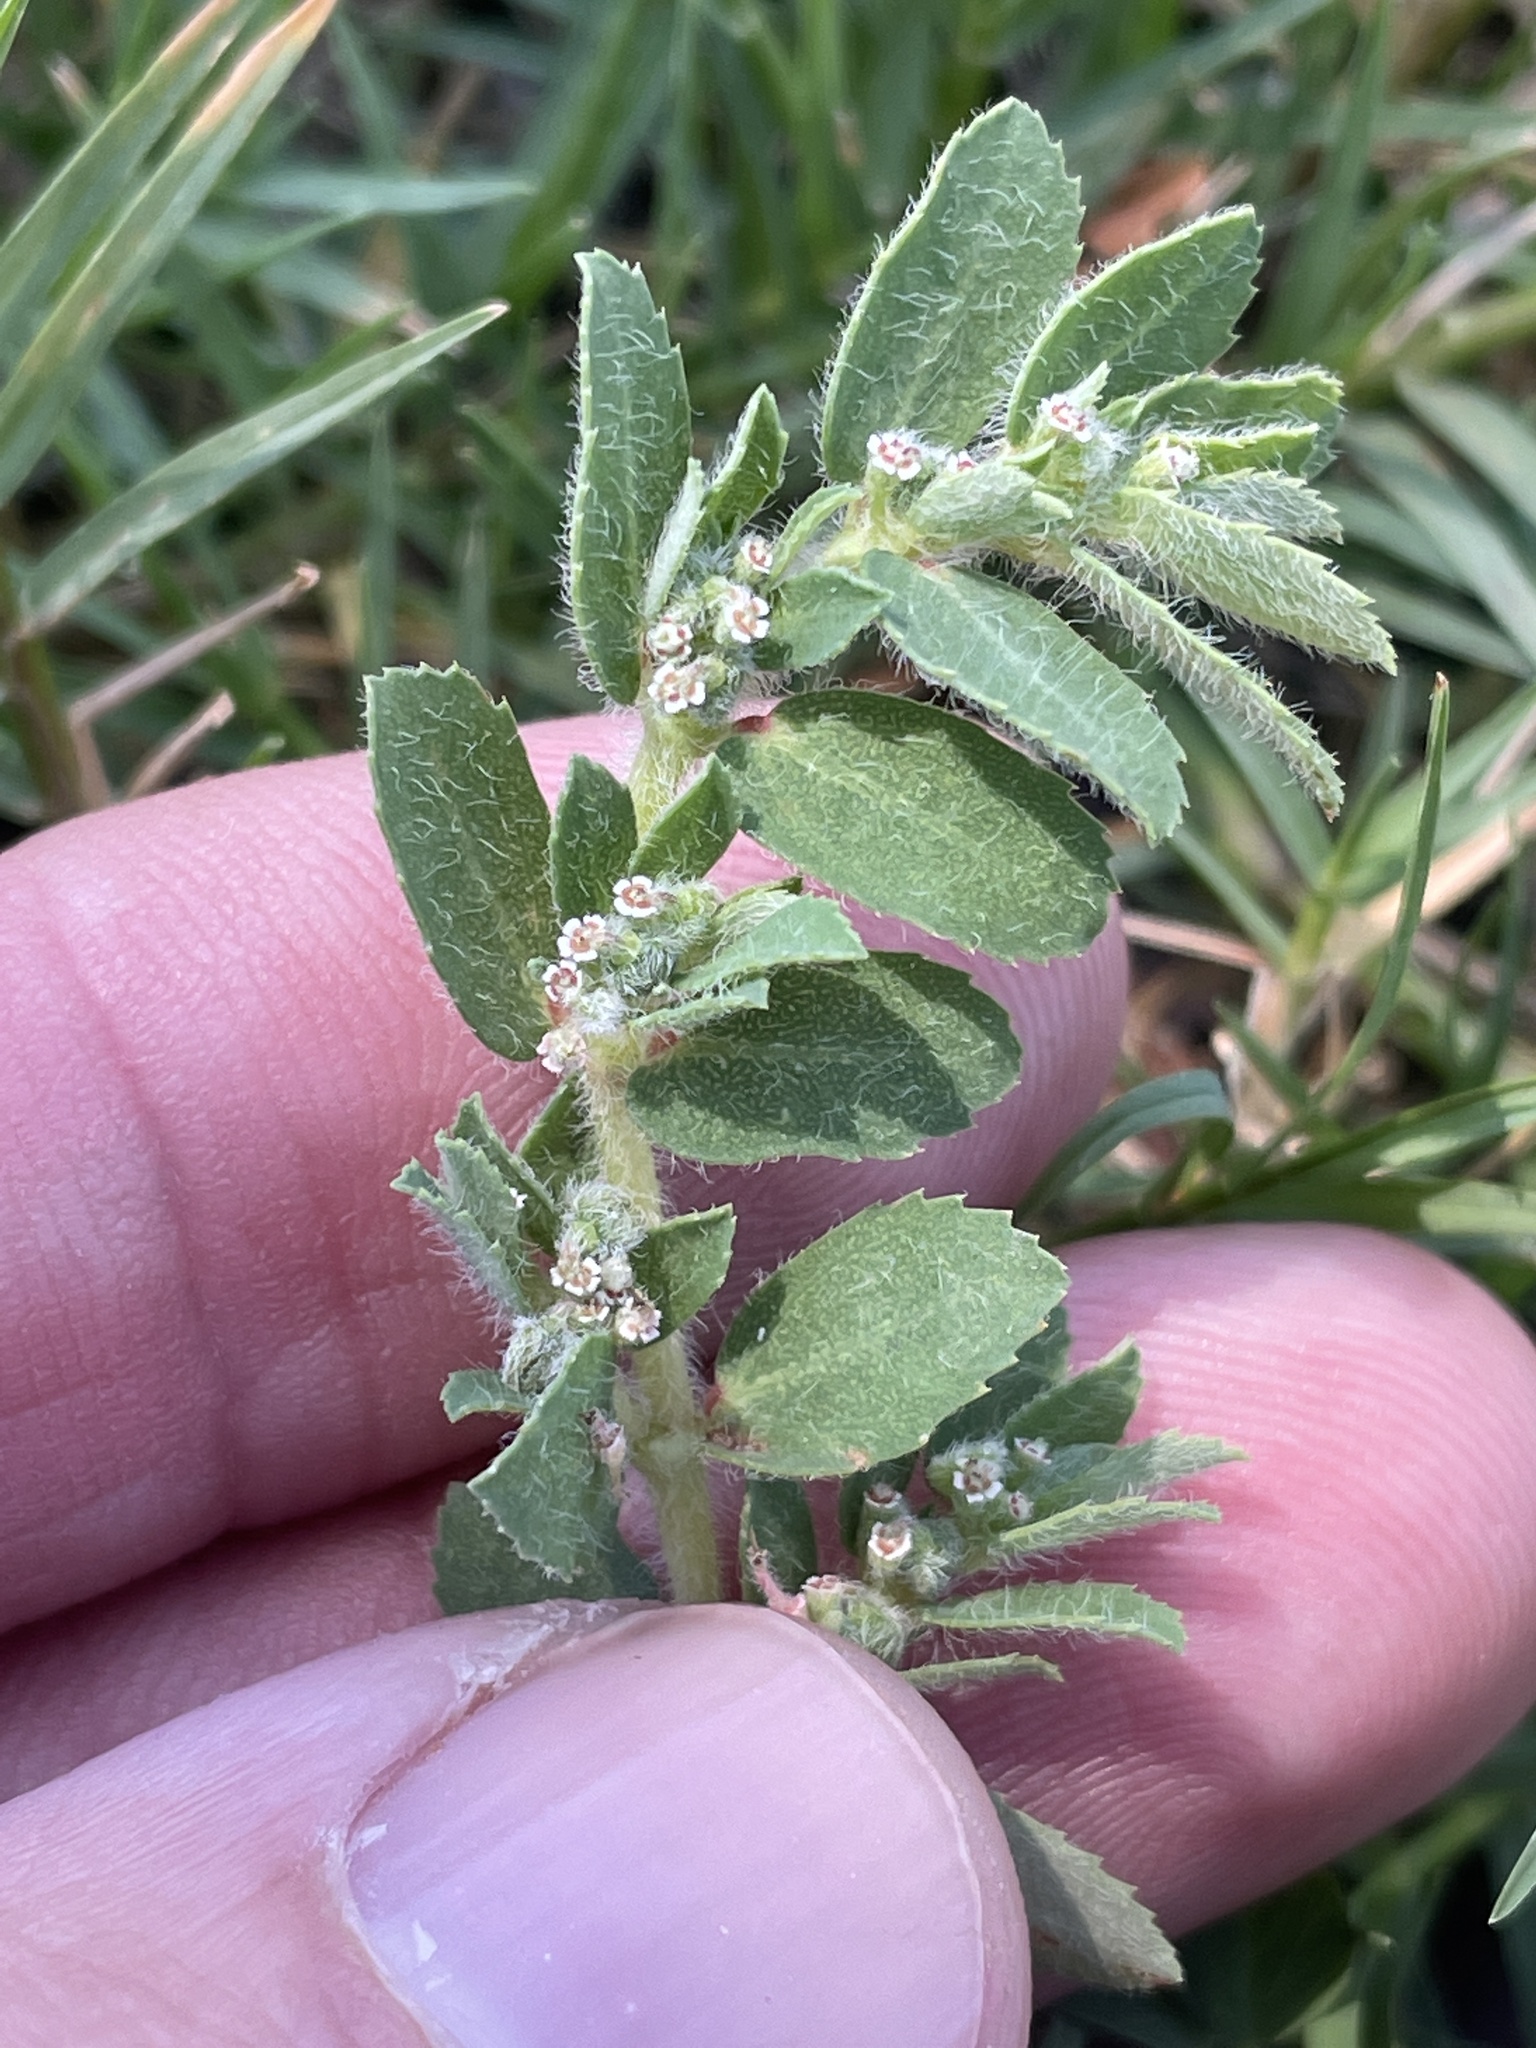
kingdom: Plantae
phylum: Tracheophyta
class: Magnoliopsida
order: Malpighiales
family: Euphorbiaceae
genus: Euphorbia
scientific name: Euphorbia stictospora
